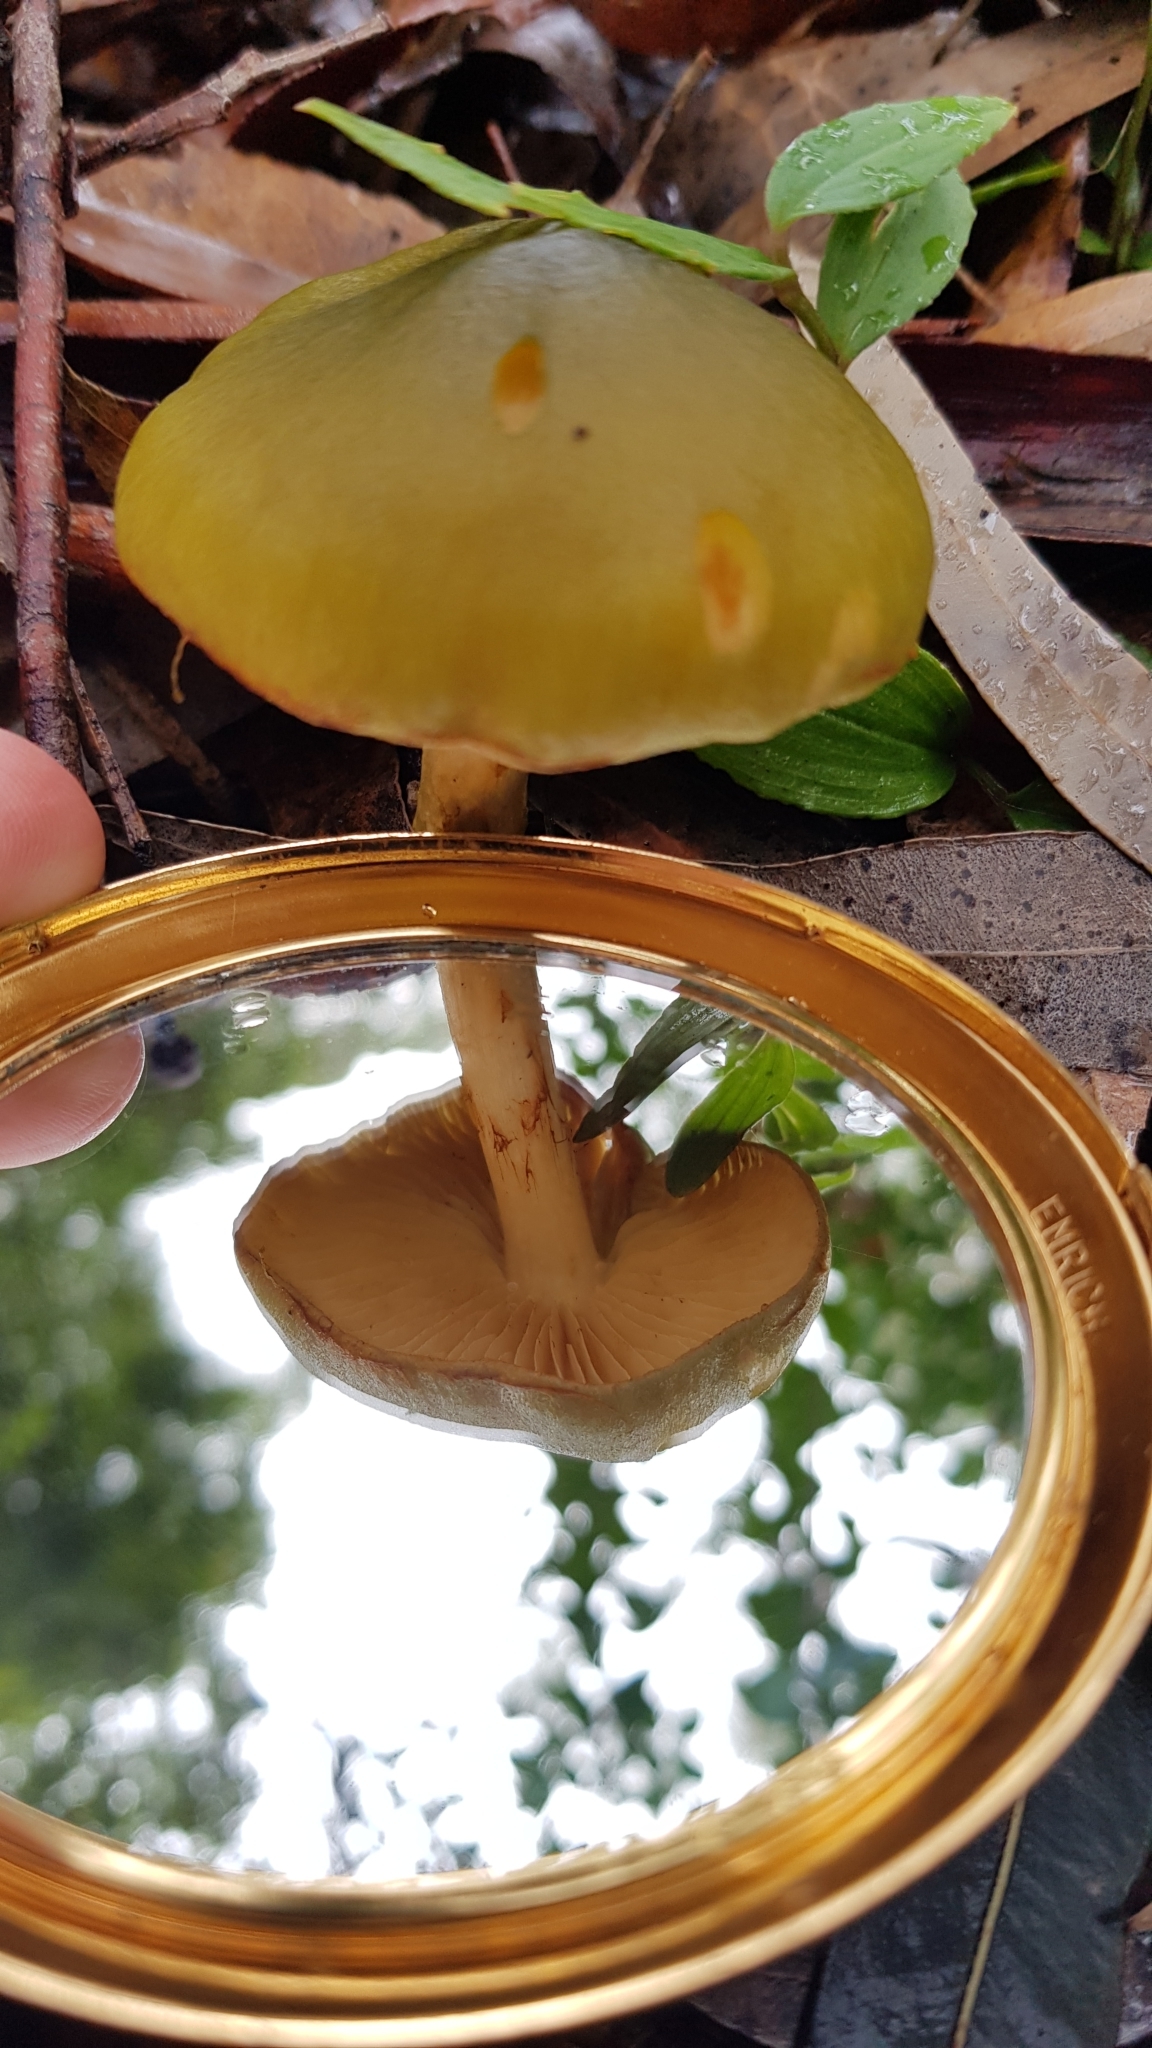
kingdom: Fungi
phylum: Basidiomycota
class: Agaricomycetes
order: Agaricales
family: Cortinariaceae
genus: Cortinarius
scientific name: Cortinarius austrovenetus
